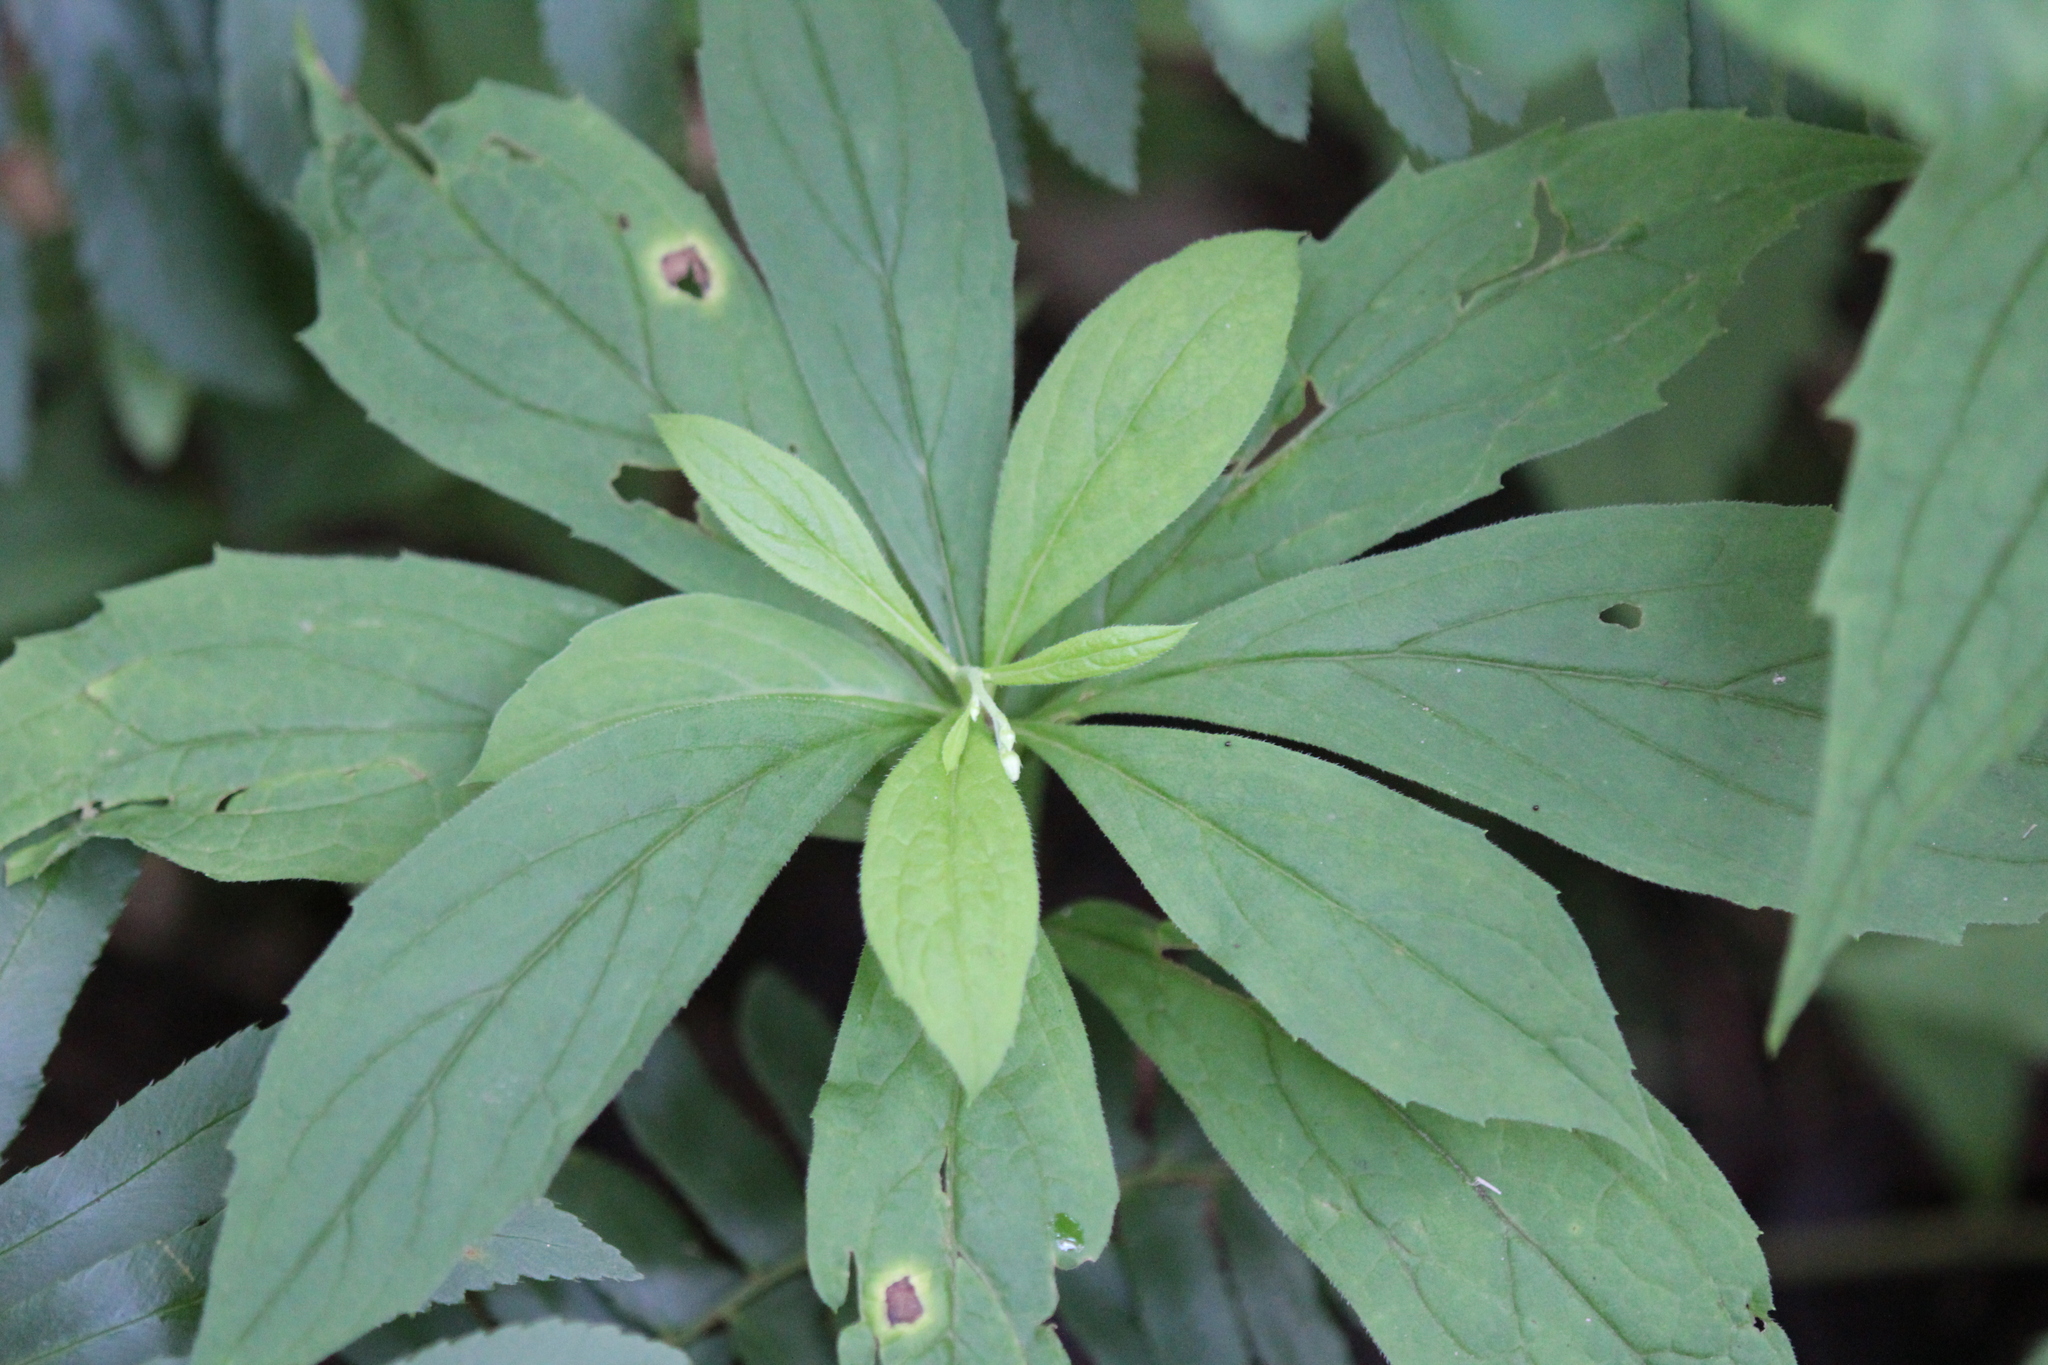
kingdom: Plantae
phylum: Tracheophyta
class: Magnoliopsida
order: Asterales
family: Asteraceae
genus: Oclemena
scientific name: Oclemena acuminata
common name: Mountain aster
